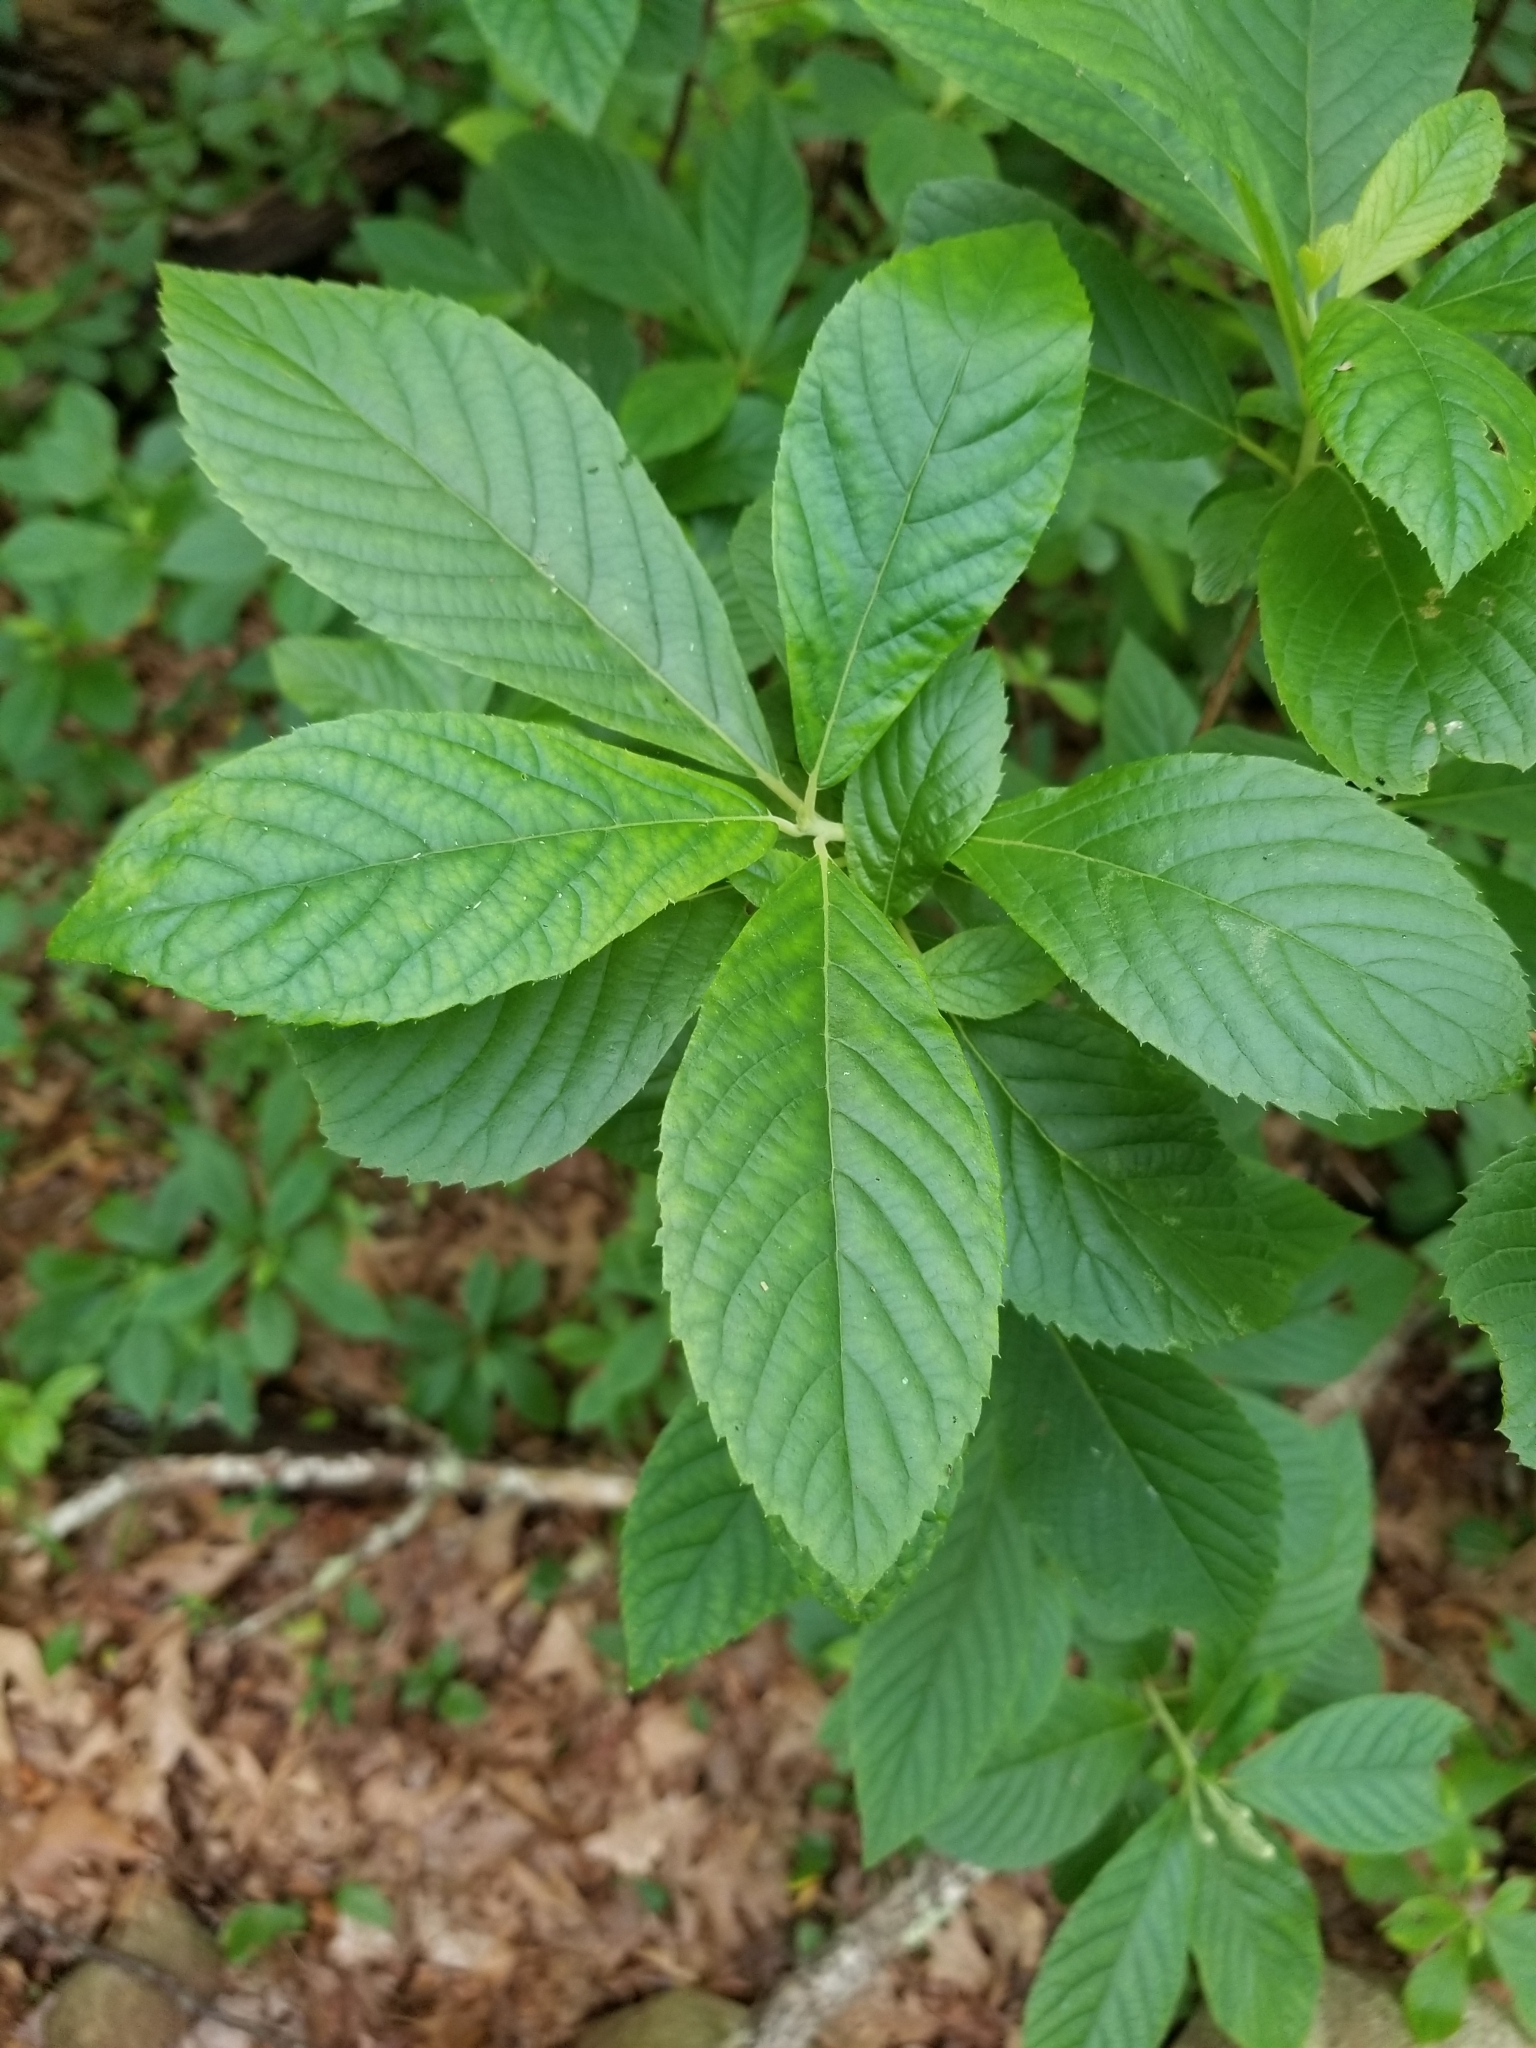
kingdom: Plantae
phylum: Tracheophyta
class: Magnoliopsida
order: Ericales
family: Clethraceae
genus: Clethra
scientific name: Clethra alnifolia
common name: Sweet pepperbush
